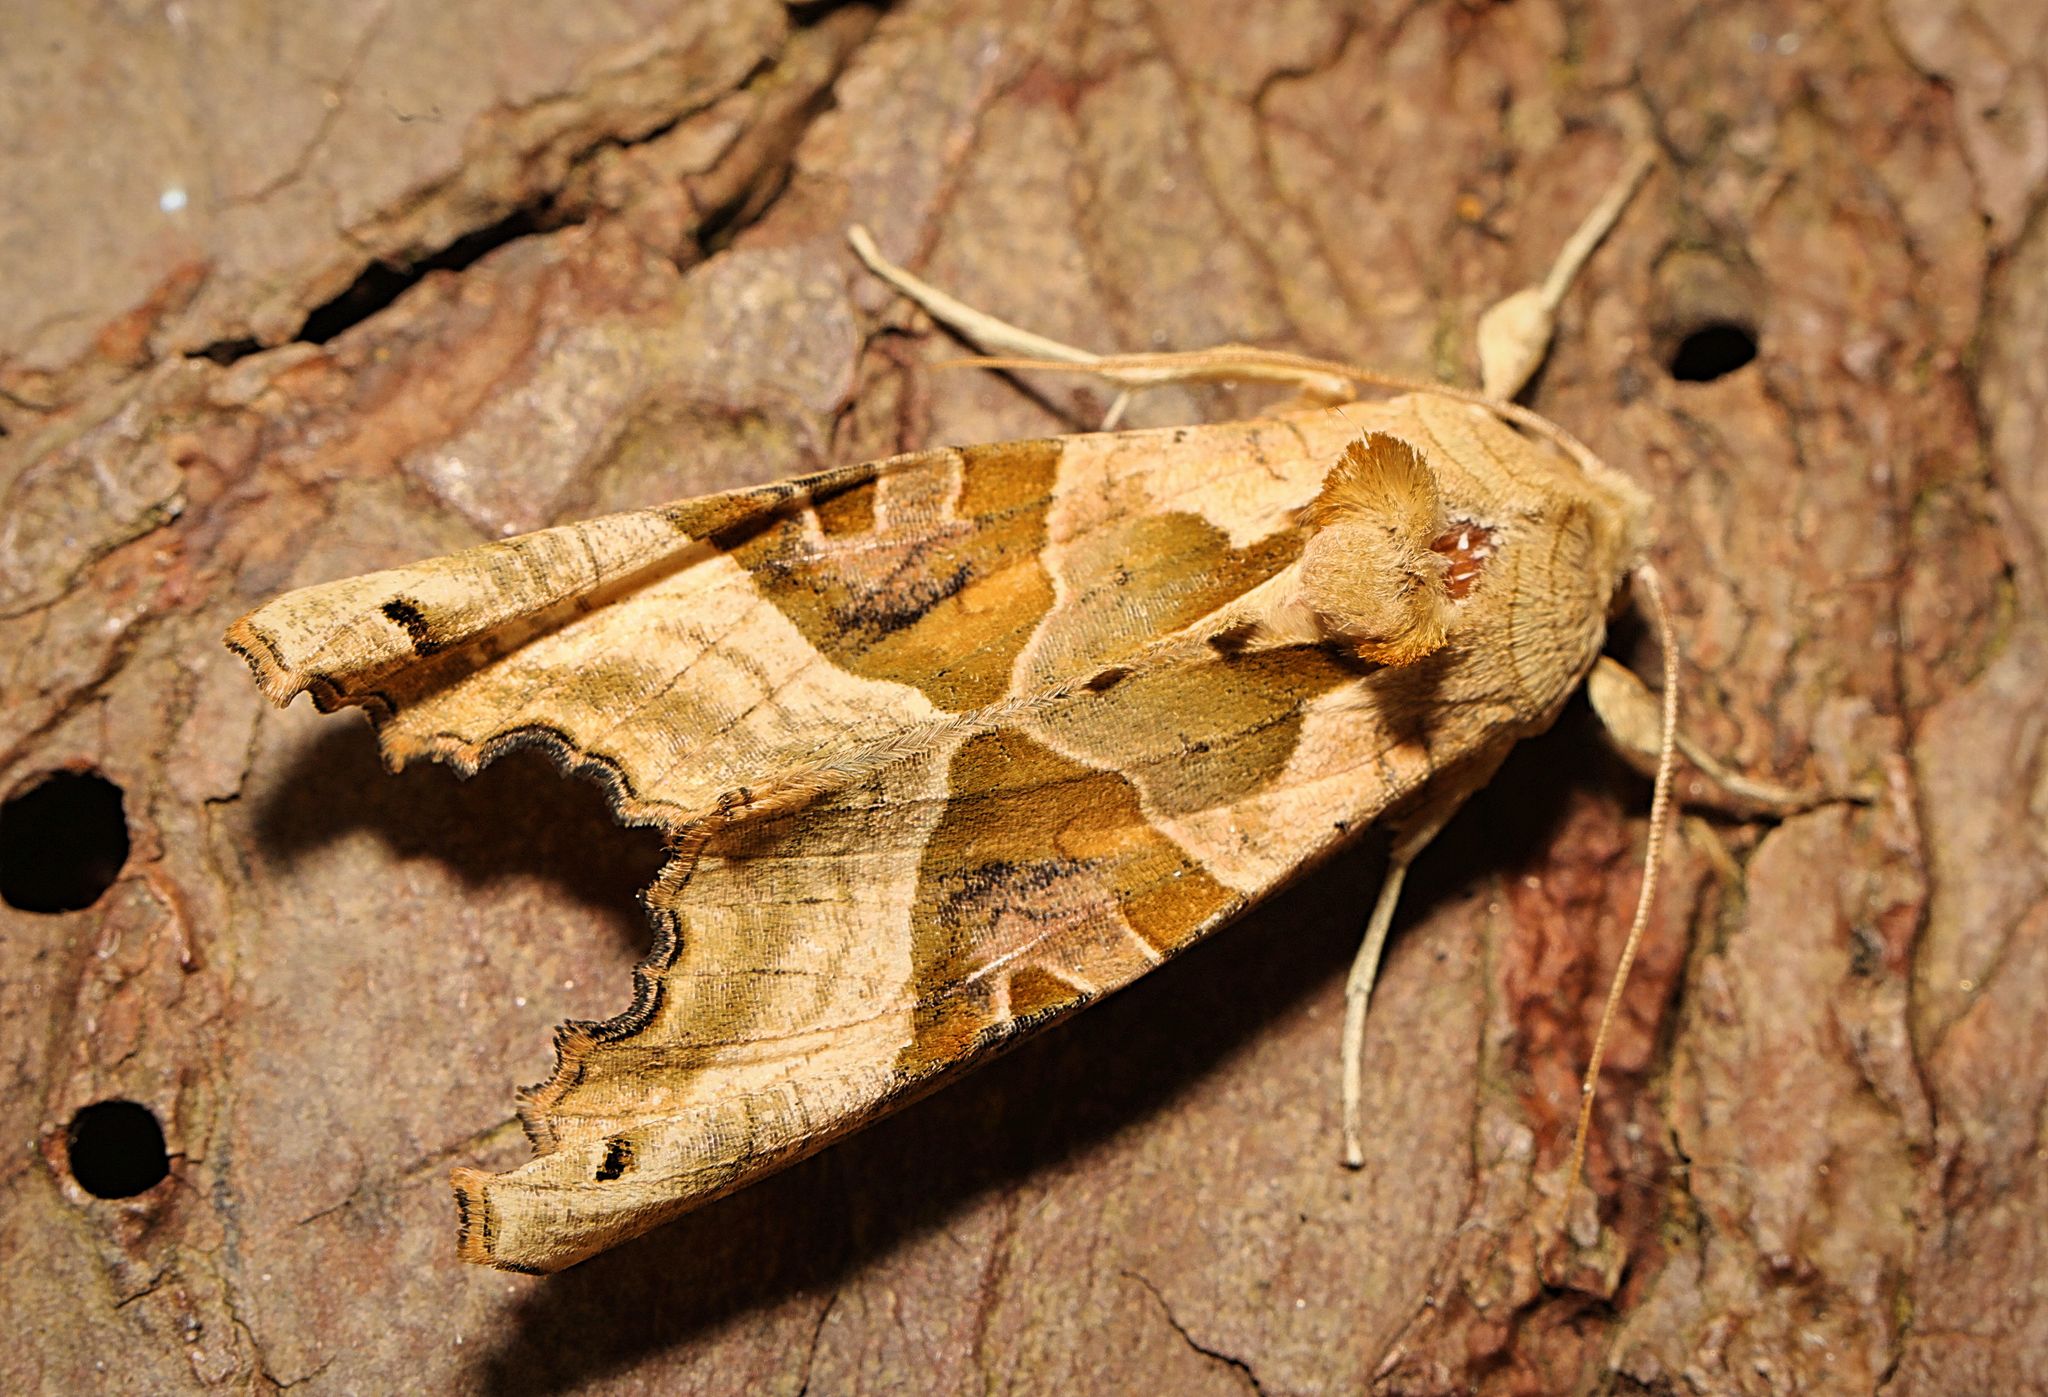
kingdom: Animalia
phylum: Arthropoda
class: Insecta
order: Lepidoptera
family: Noctuidae
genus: Phlogophora
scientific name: Phlogophora meticulosa
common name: Angle shades
